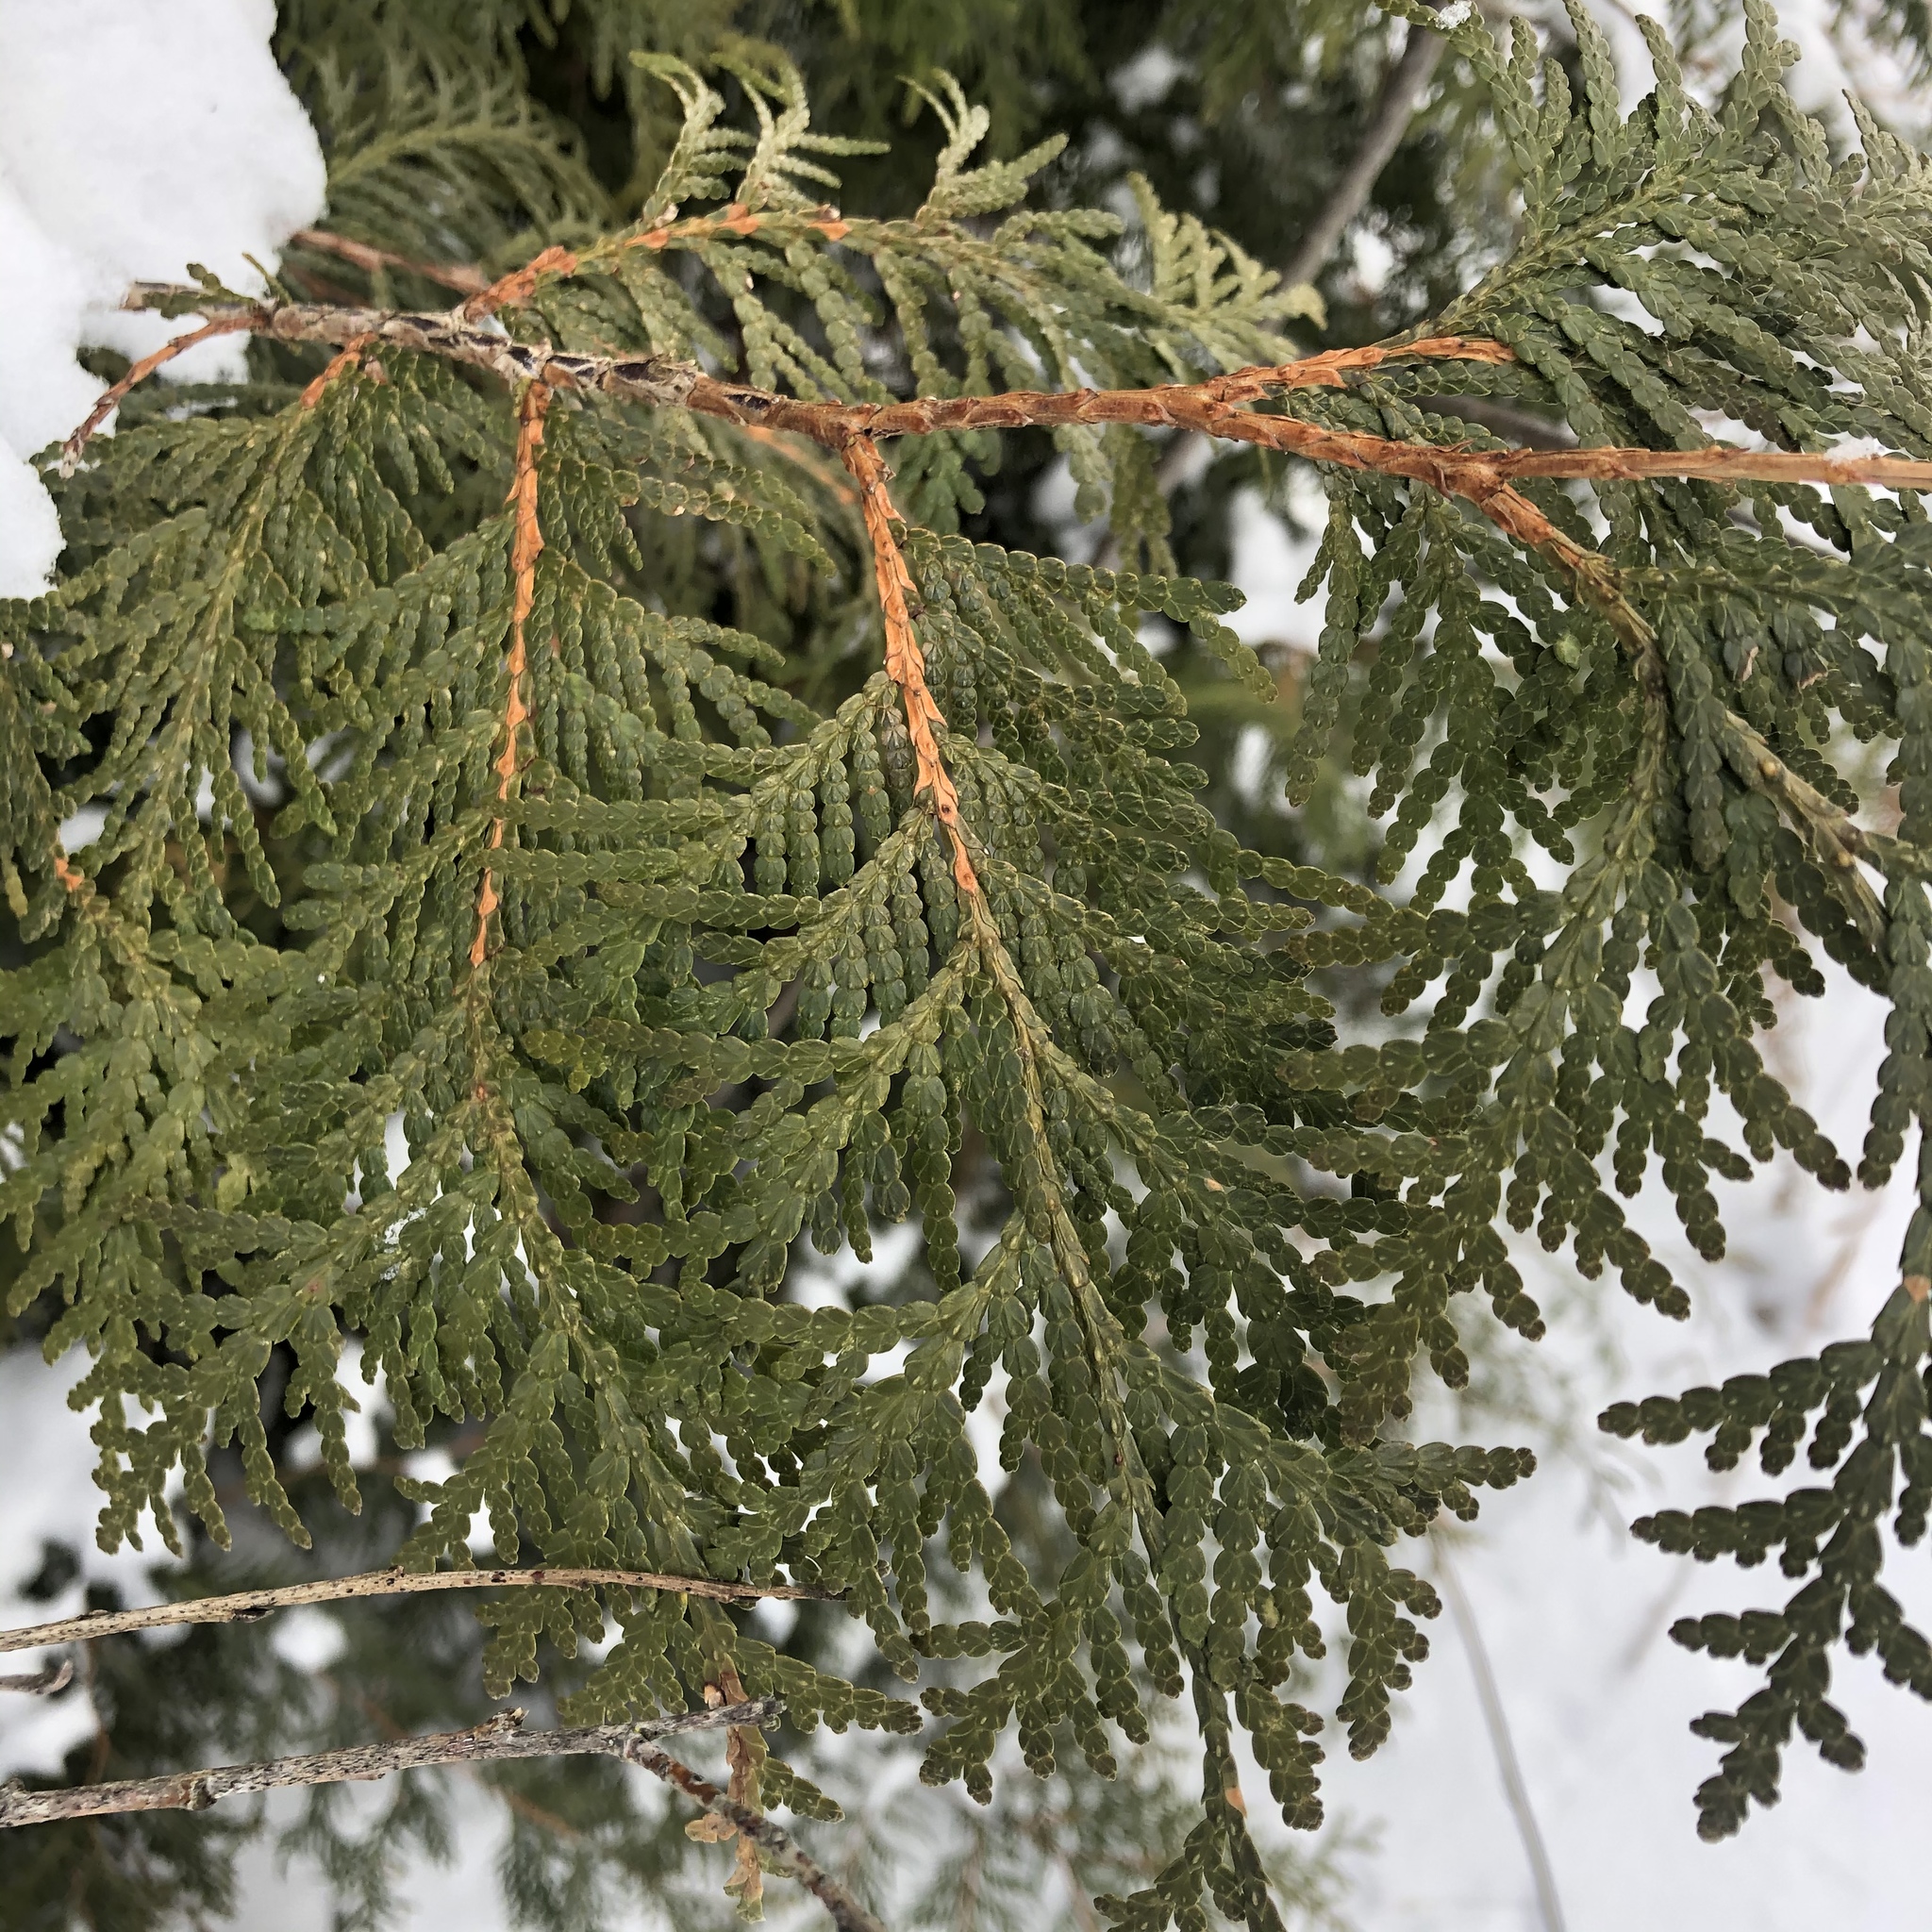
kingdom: Plantae
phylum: Tracheophyta
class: Pinopsida
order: Pinales
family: Cupressaceae
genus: Thuja
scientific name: Thuja occidentalis
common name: Northern white-cedar
